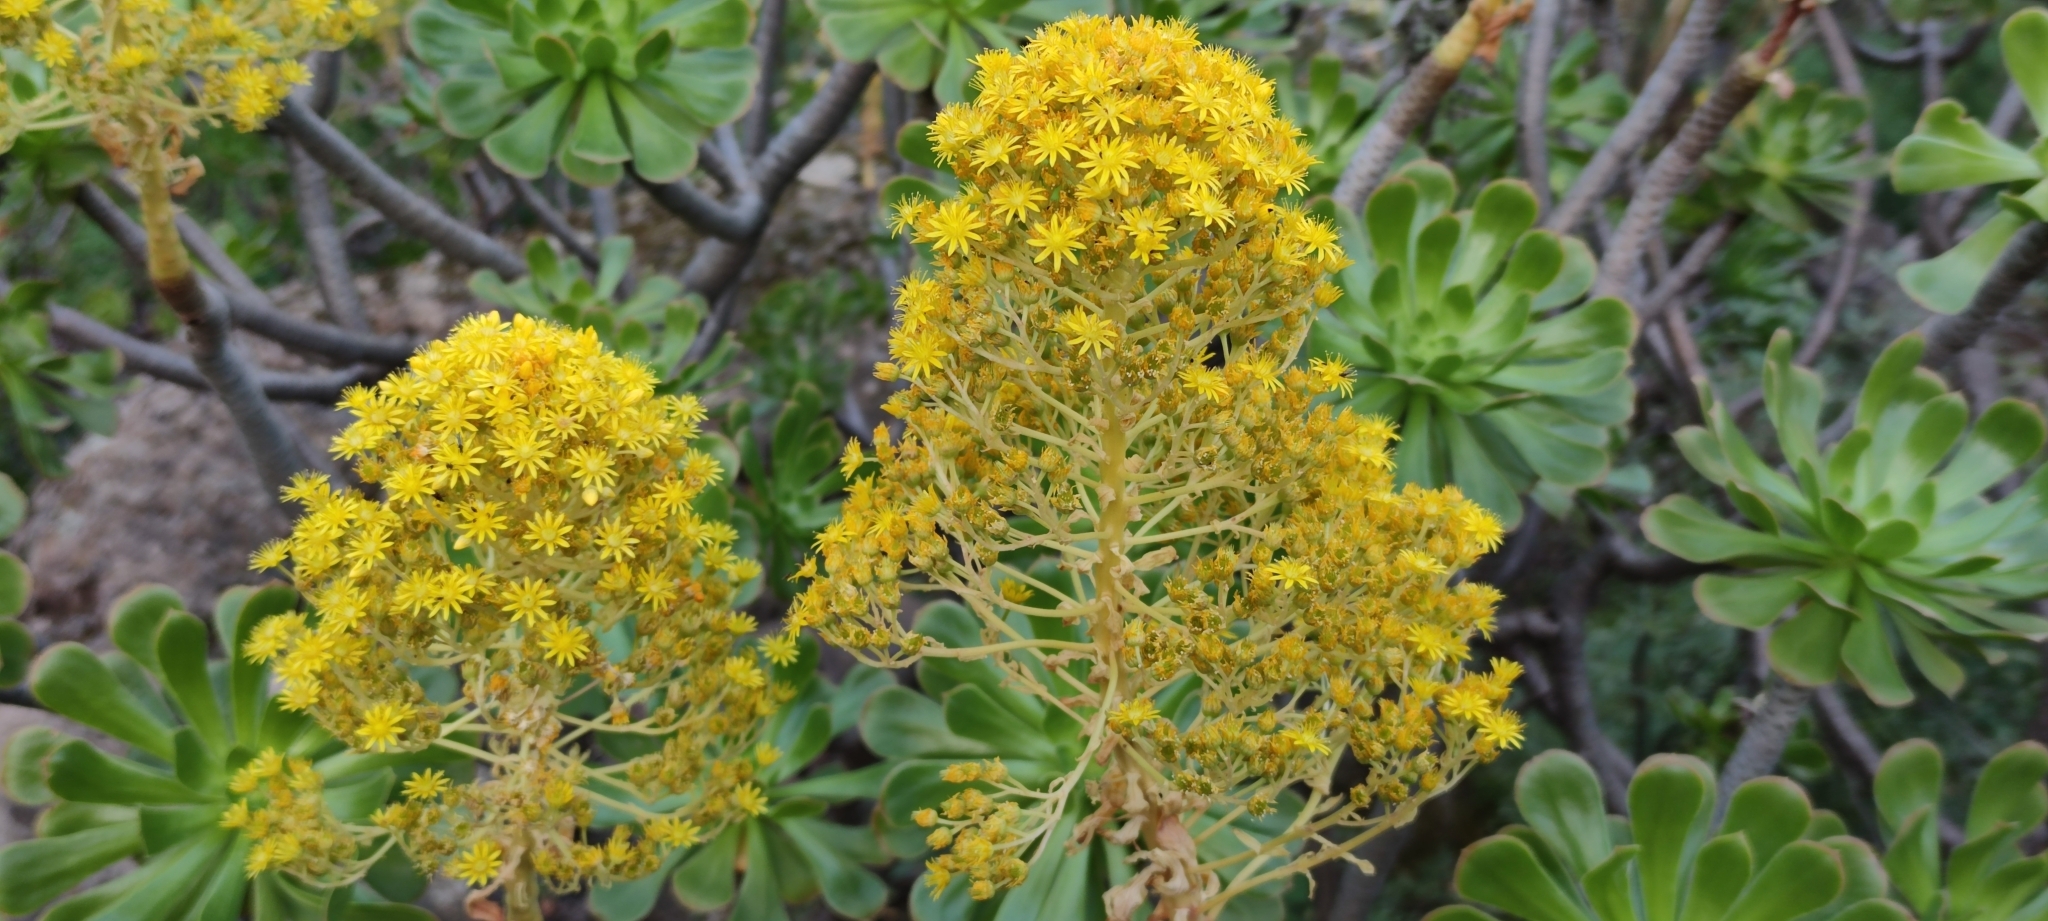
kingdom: Plantae
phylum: Tracheophyta
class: Magnoliopsida
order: Saxifragales
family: Crassulaceae
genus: Aeonium
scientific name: Aeonium arboreum
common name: Tree aeonium
